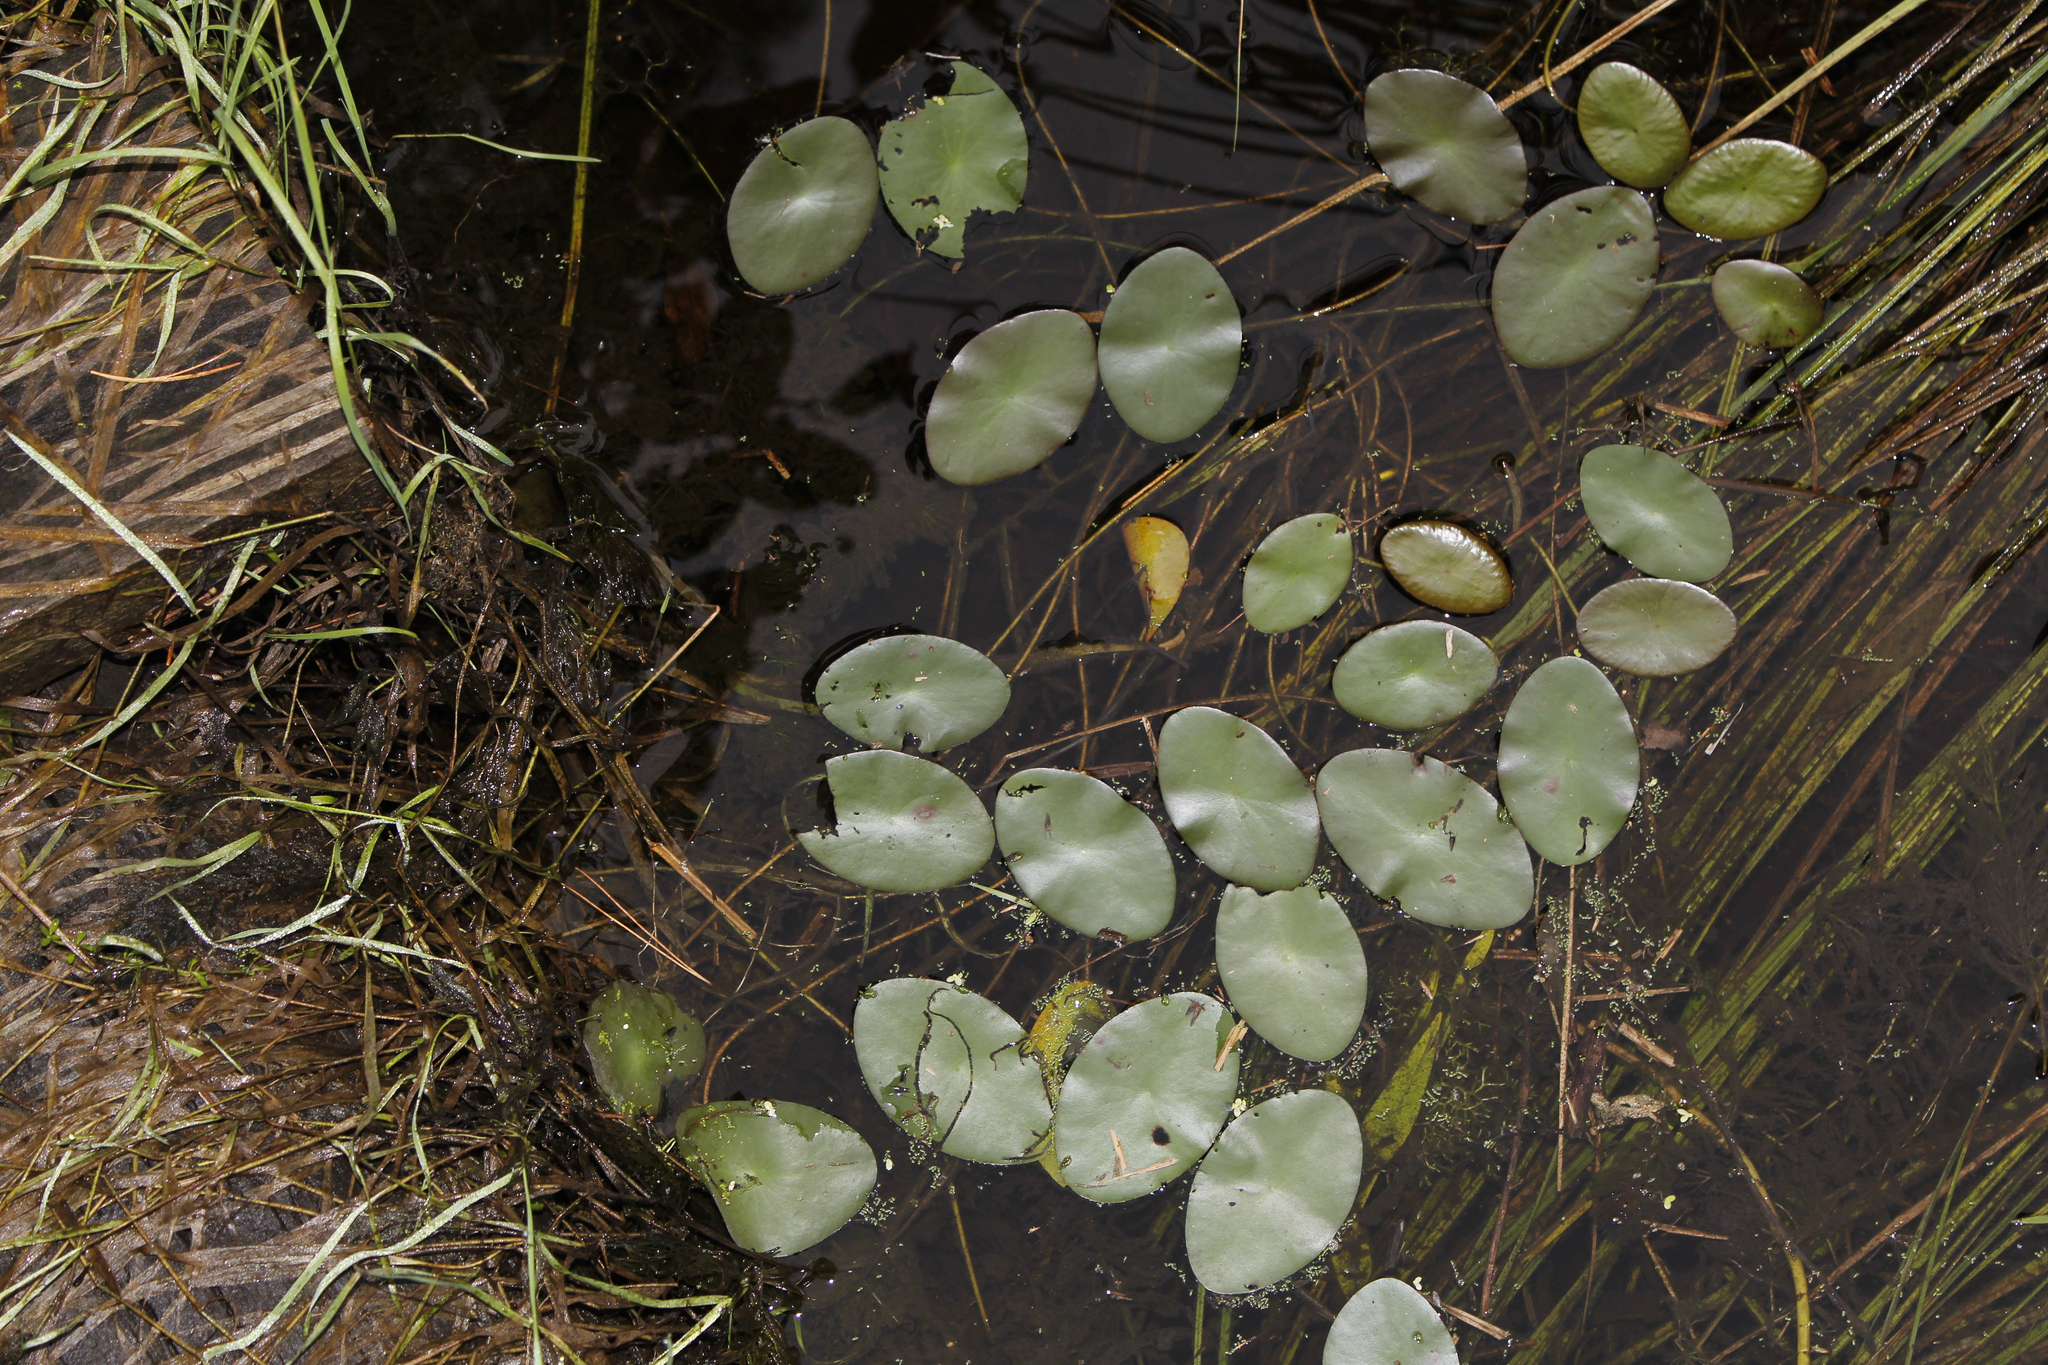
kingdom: Plantae
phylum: Tracheophyta
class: Magnoliopsida
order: Nymphaeales
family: Cabombaceae
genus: Brasenia
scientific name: Brasenia schreberi
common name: Water-shield
